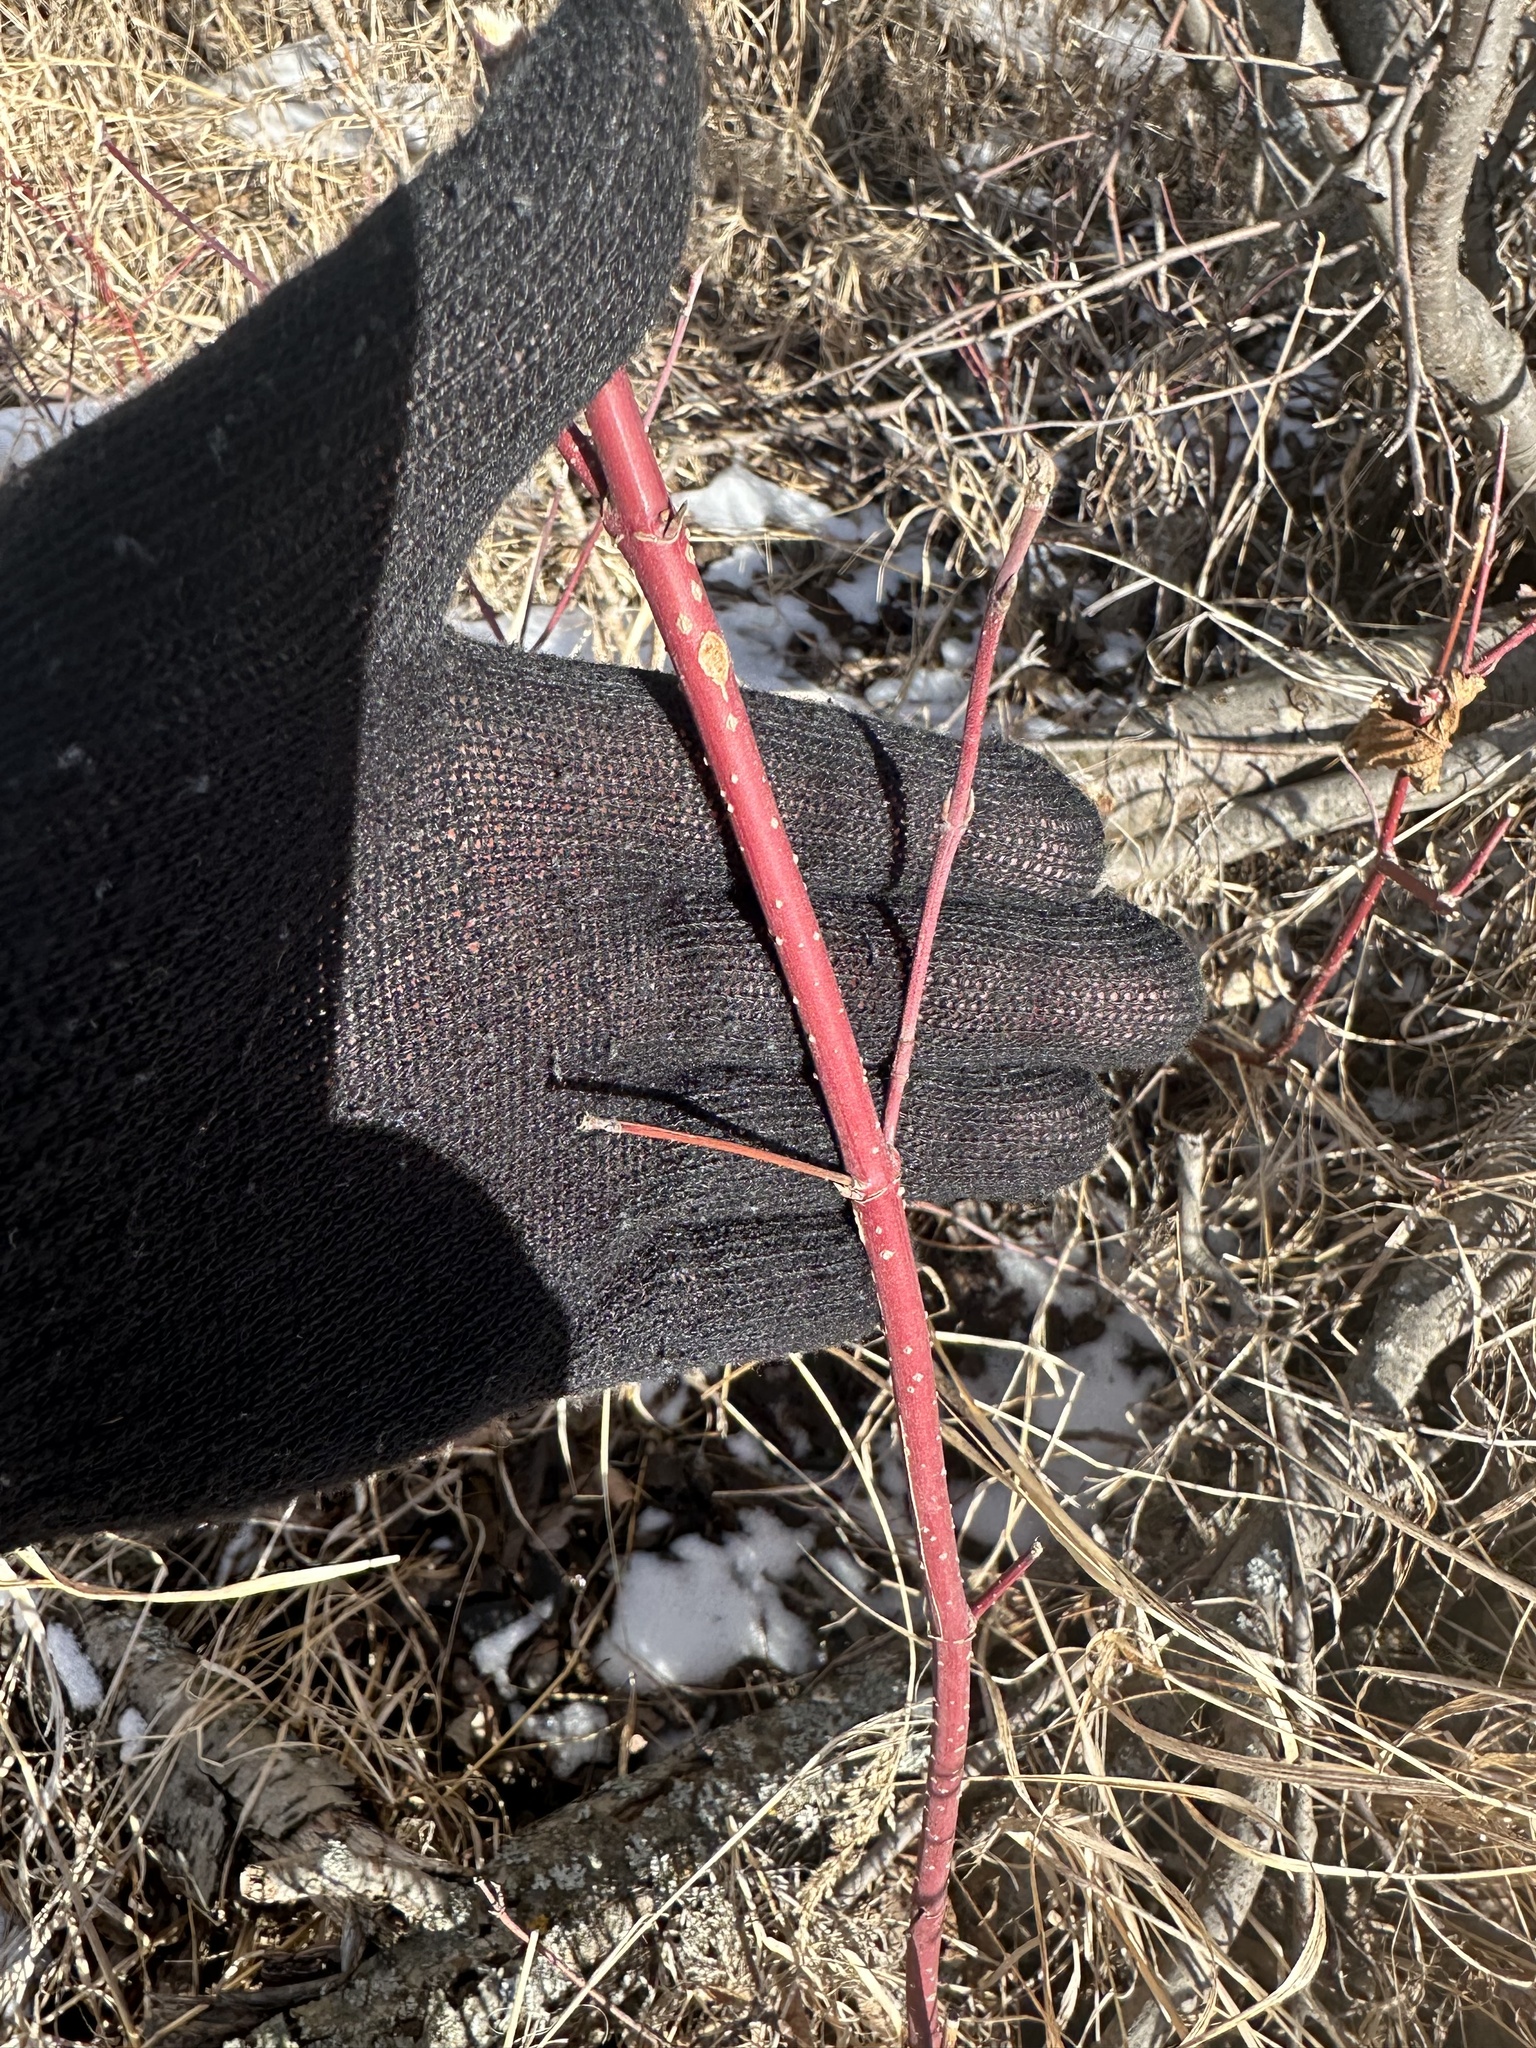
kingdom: Plantae
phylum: Tracheophyta
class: Magnoliopsida
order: Cornales
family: Cornaceae
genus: Cornus
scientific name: Cornus sericea
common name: Red-osier dogwood
